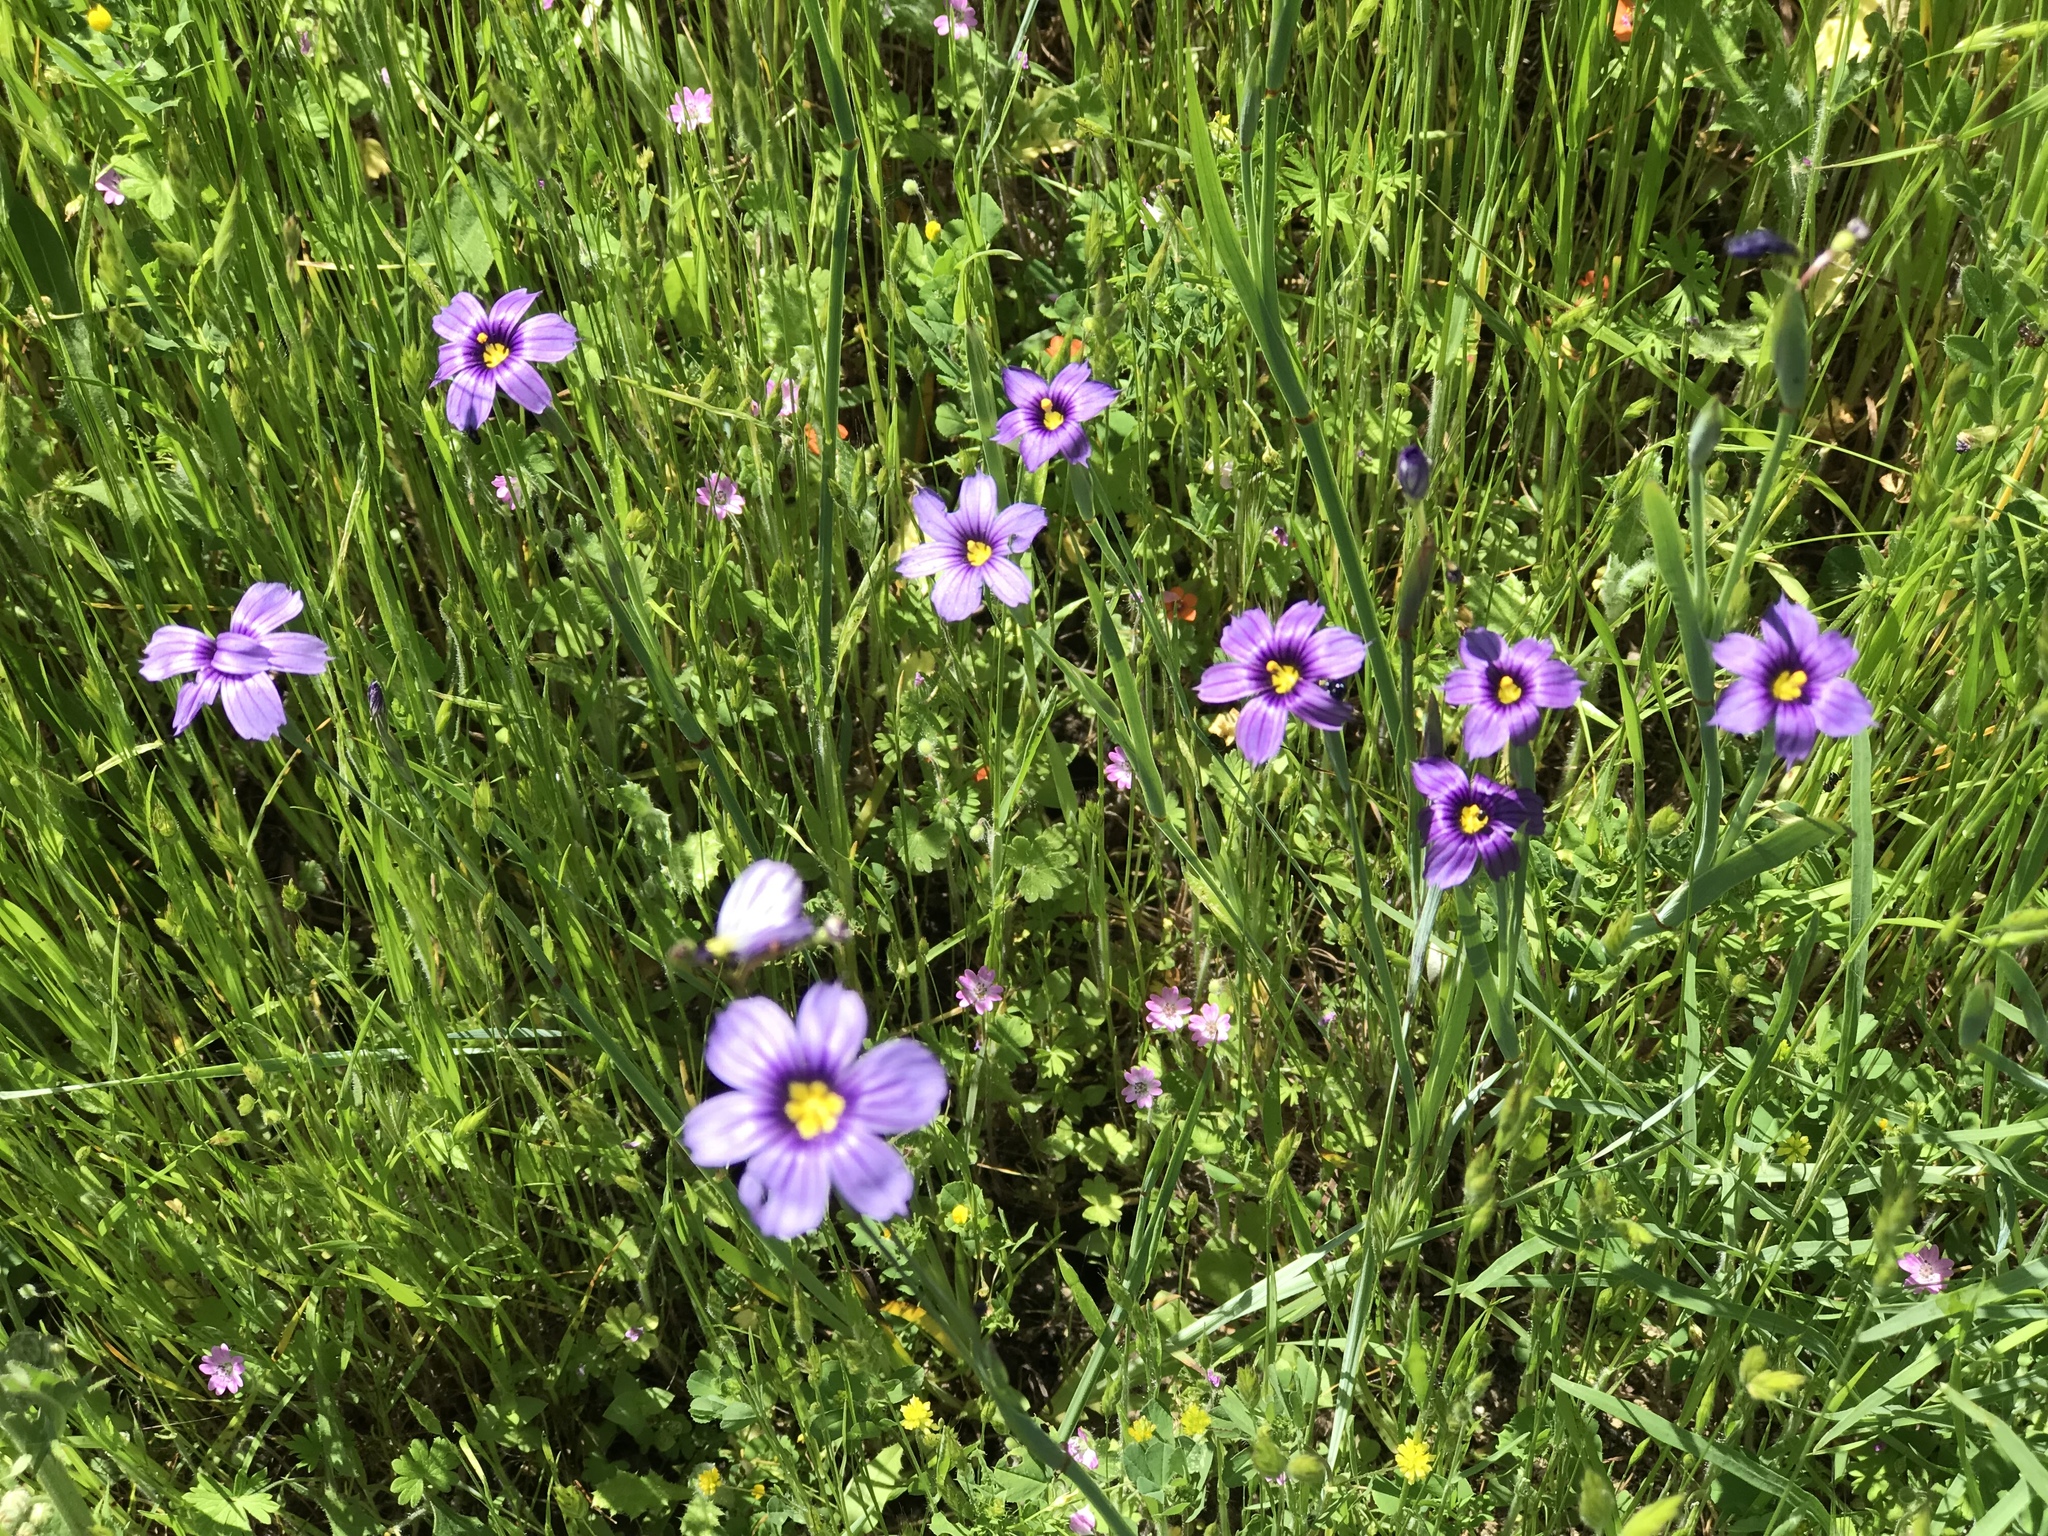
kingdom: Plantae
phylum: Tracheophyta
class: Liliopsida
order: Asparagales
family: Iridaceae
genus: Sisyrinchium
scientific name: Sisyrinchium bellum
